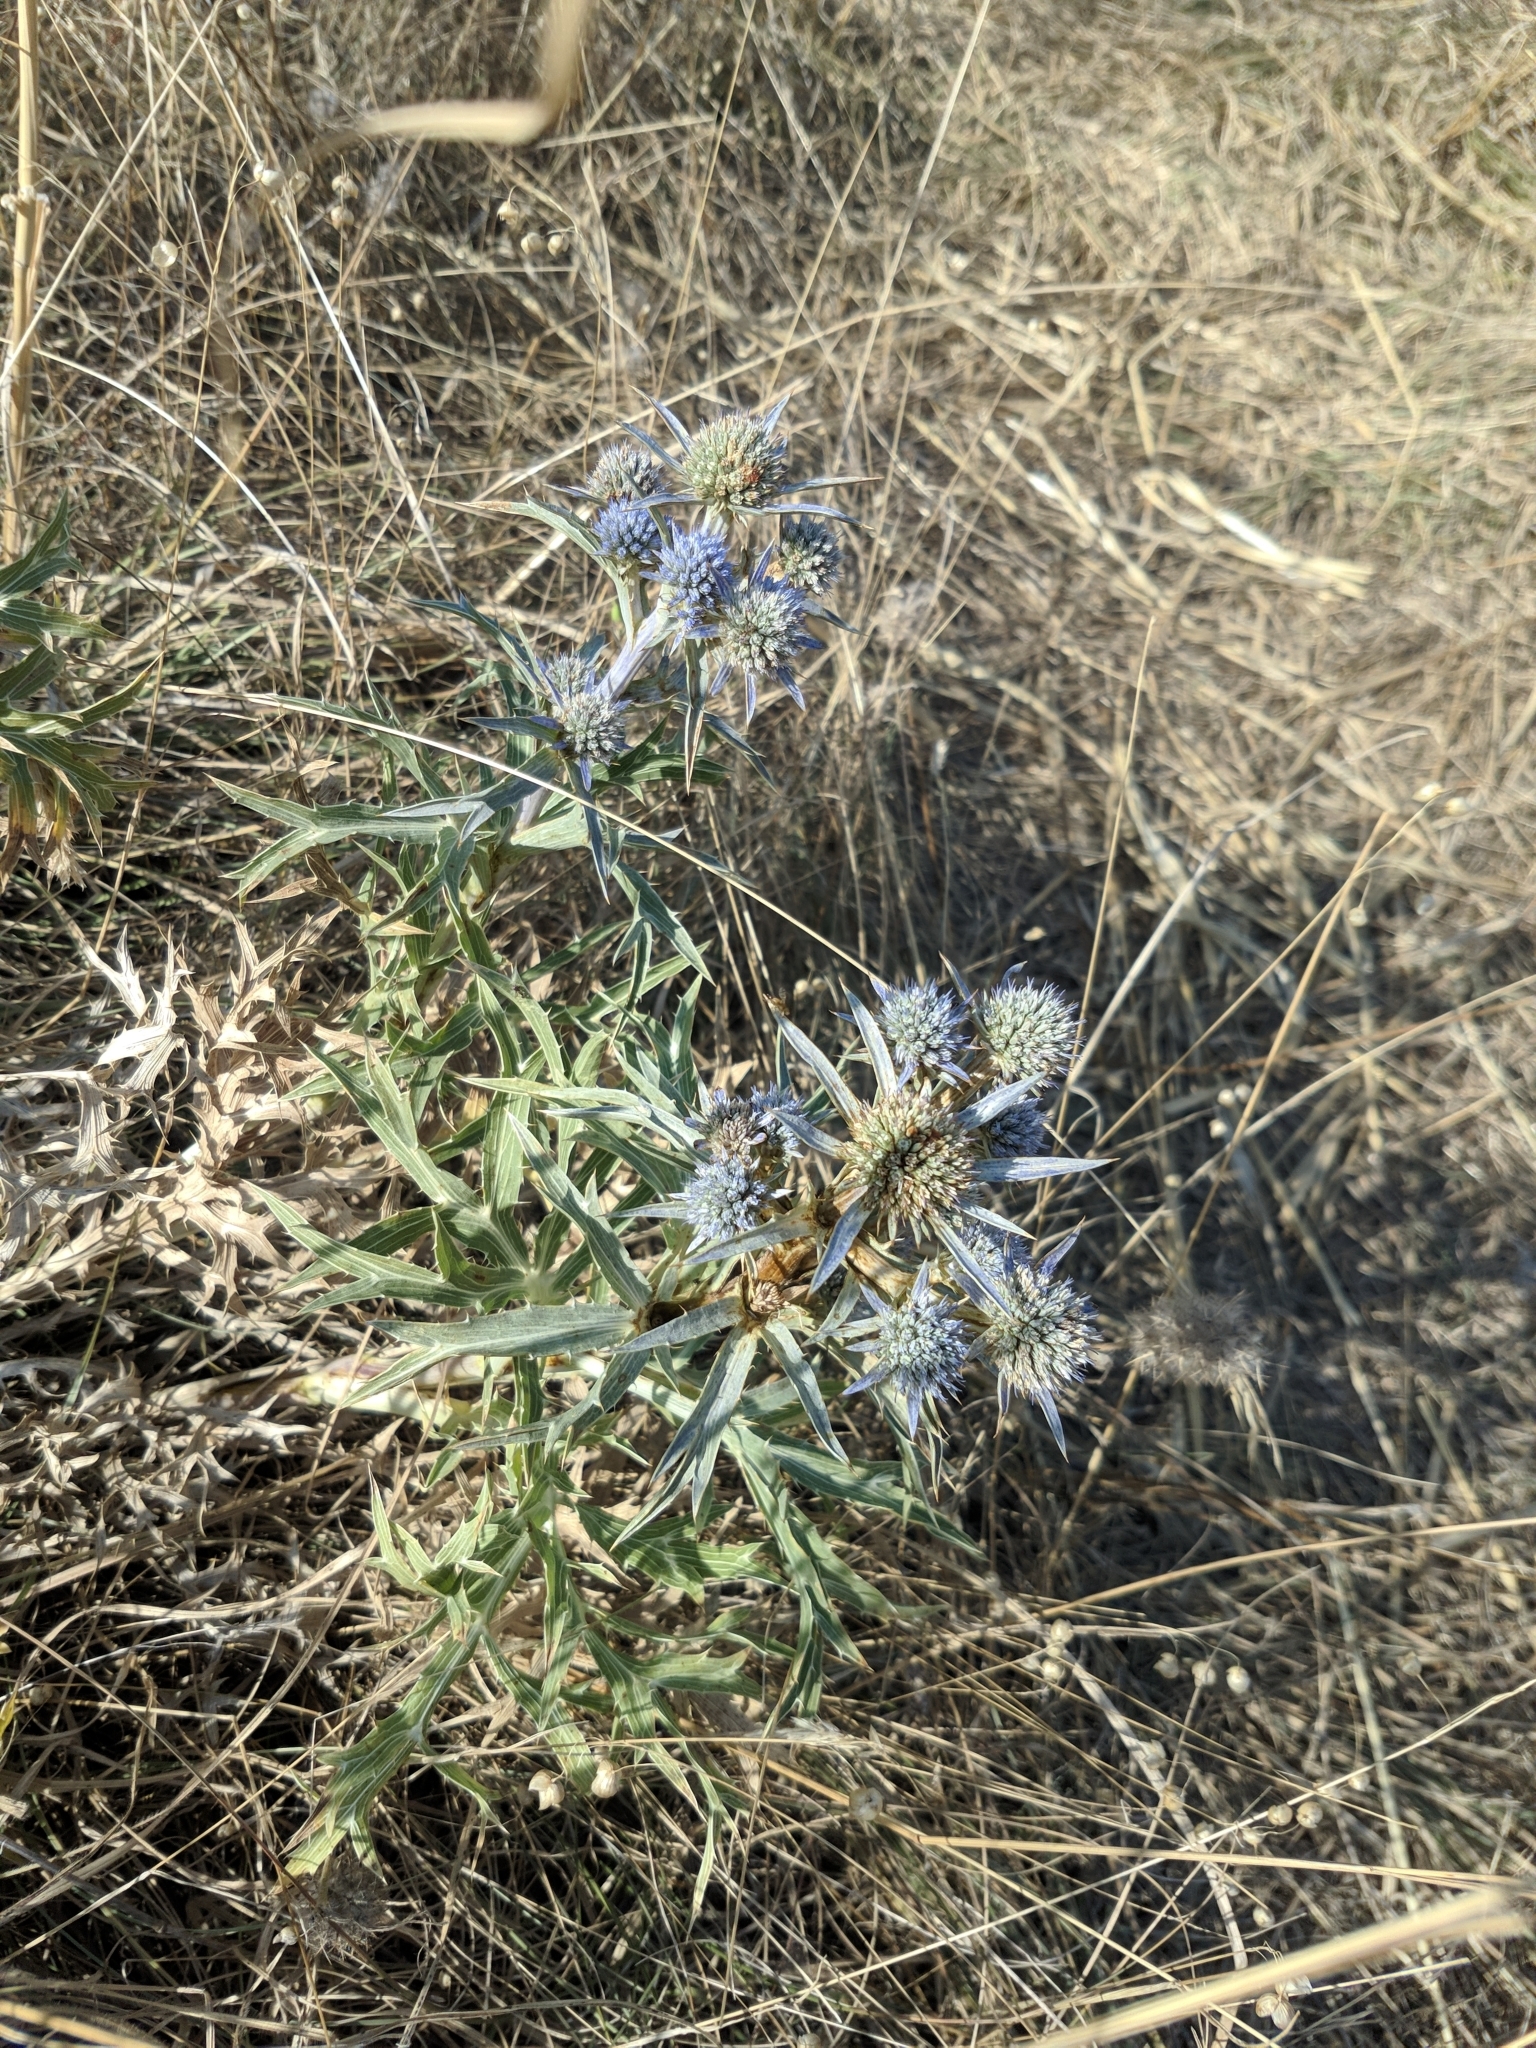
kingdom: Plantae
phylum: Tracheophyta
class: Magnoliopsida
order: Apiales
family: Apiaceae
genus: Eryngium
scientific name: Eryngium amethystinum
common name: Amethyst eryngo
